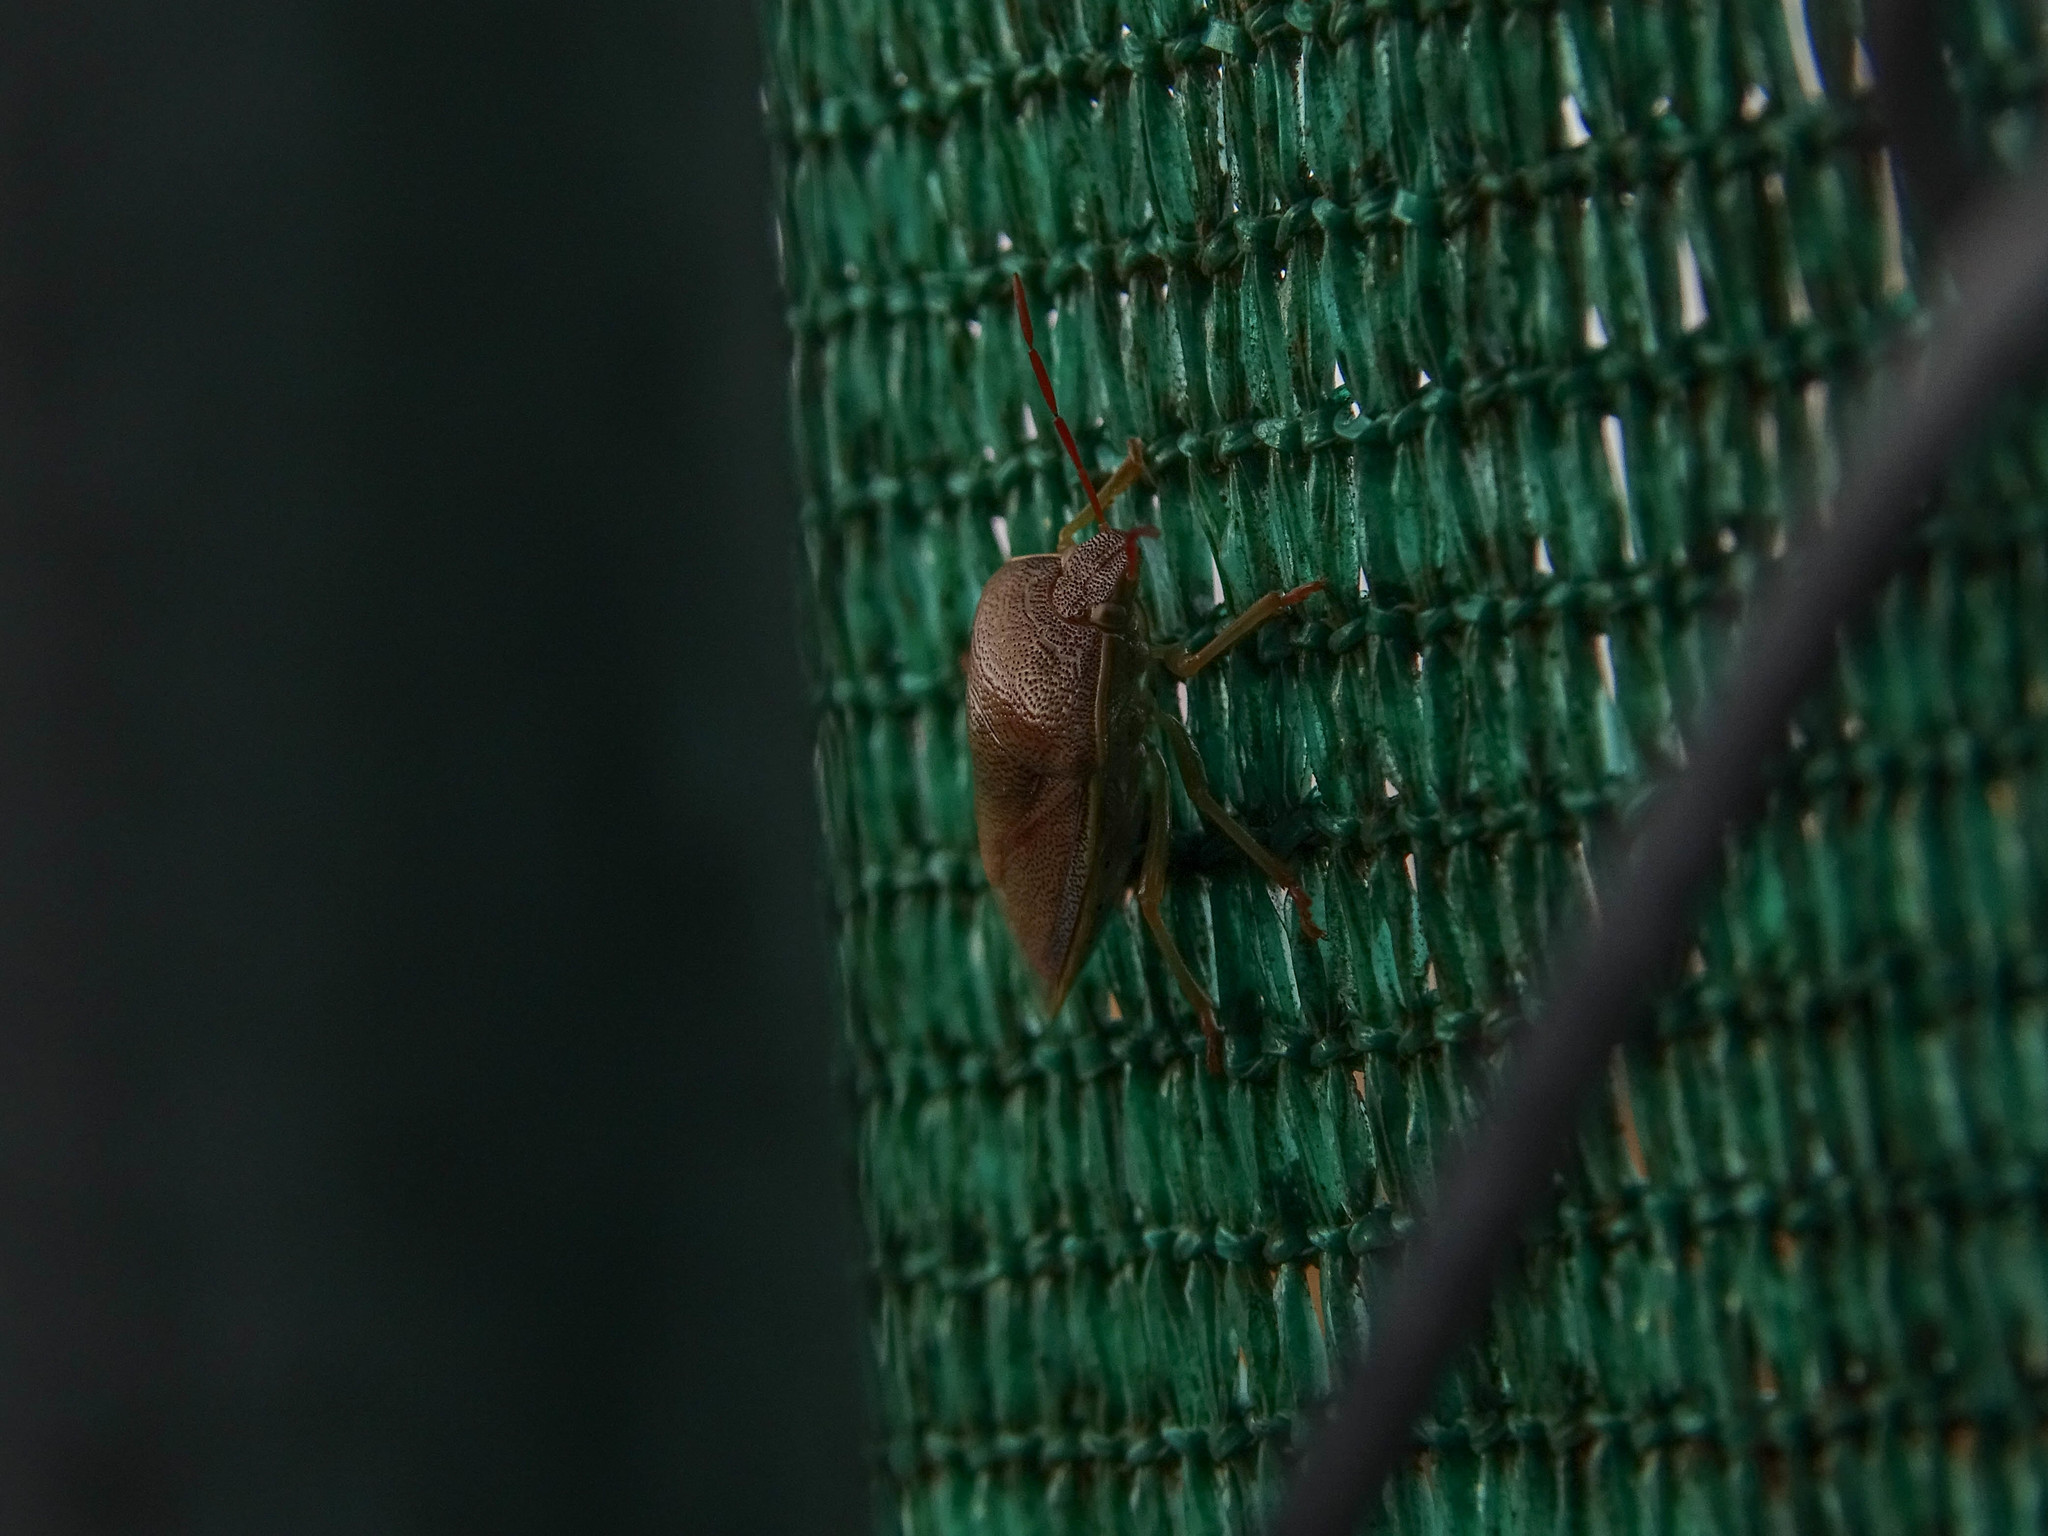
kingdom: Animalia
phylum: Arthropoda
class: Insecta
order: Hemiptera
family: Pentatomidae
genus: Piezodorus
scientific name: Piezodorus lituratus
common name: Stink bug
